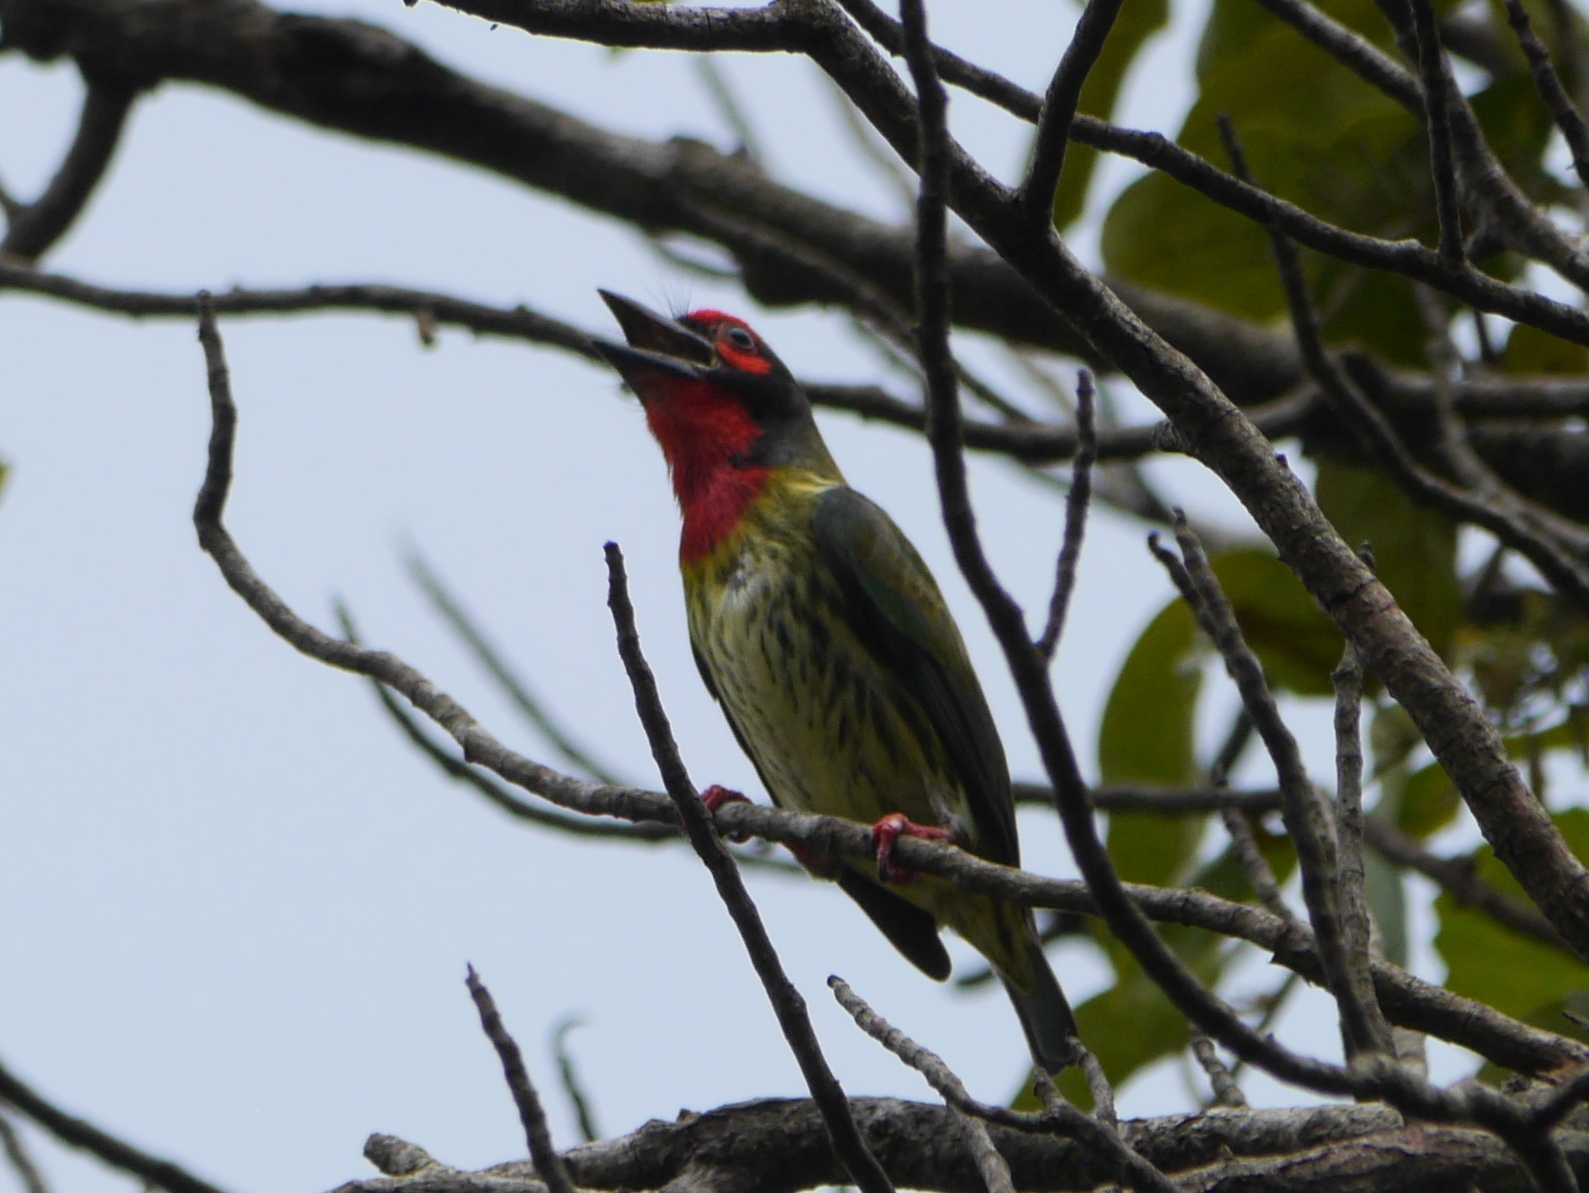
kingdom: Animalia
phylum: Chordata
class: Aves
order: Piciformes
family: Megalaimidae
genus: Psilopogon
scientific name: Psilopogon haemacephalus
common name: Coppersmith barbet
